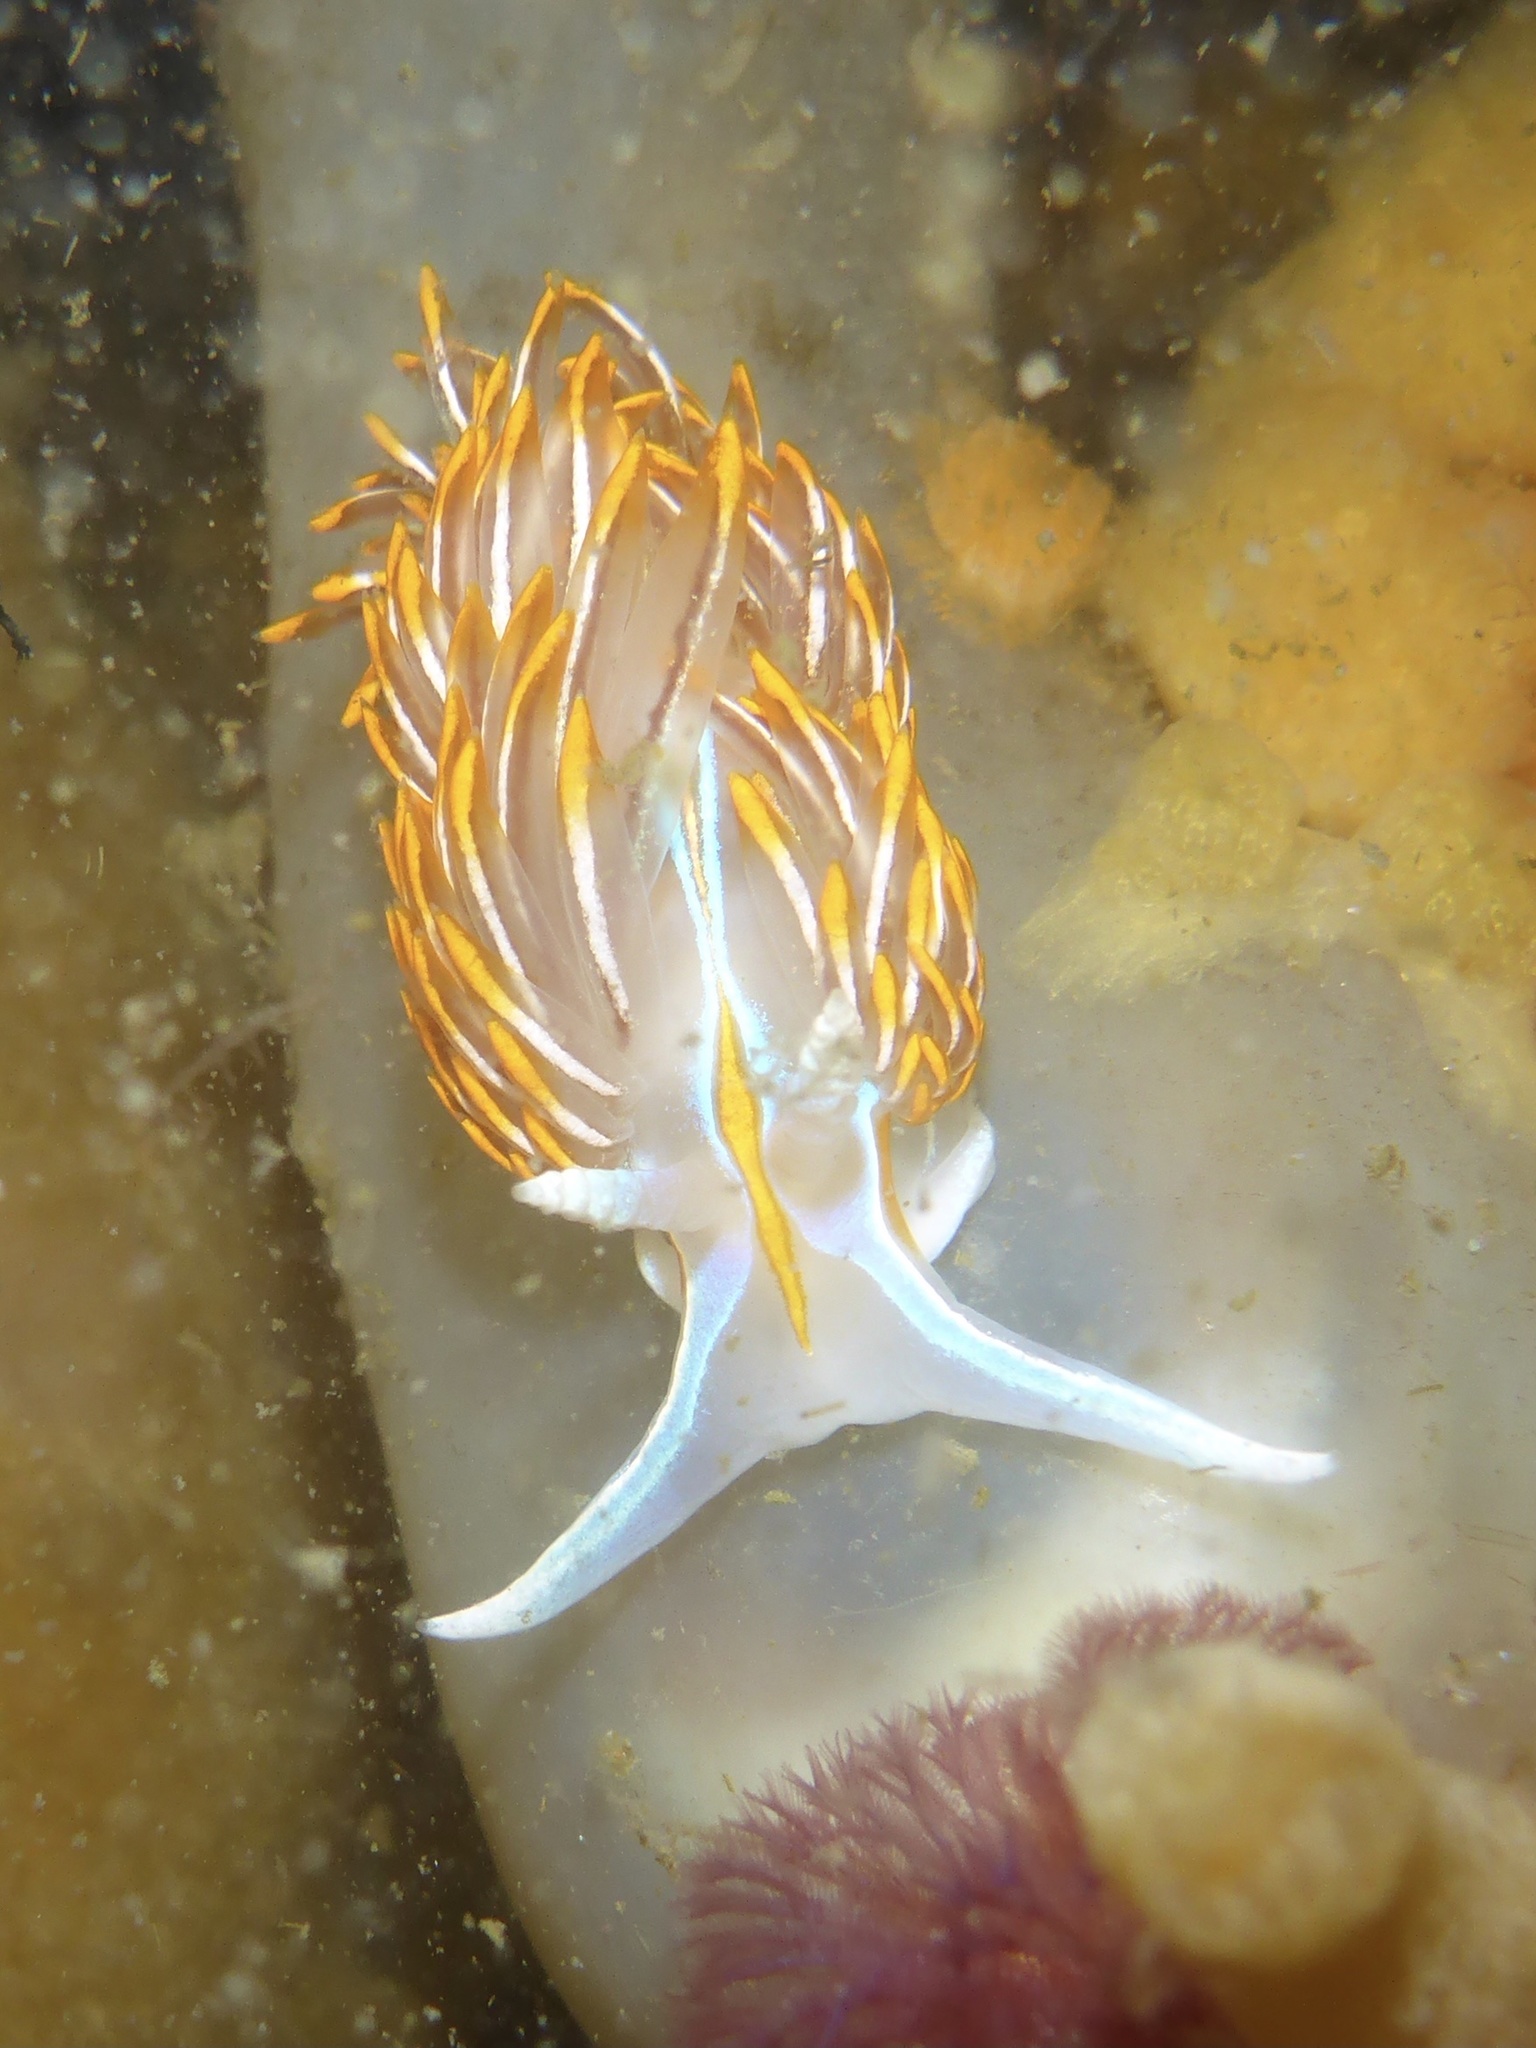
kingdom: Animalia
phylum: Mollusca
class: Gastropoda
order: Nudibranchia
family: Myrrhinidae
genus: Hermissenda
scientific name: Hermissenda crassicornis
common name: Hermissenda
